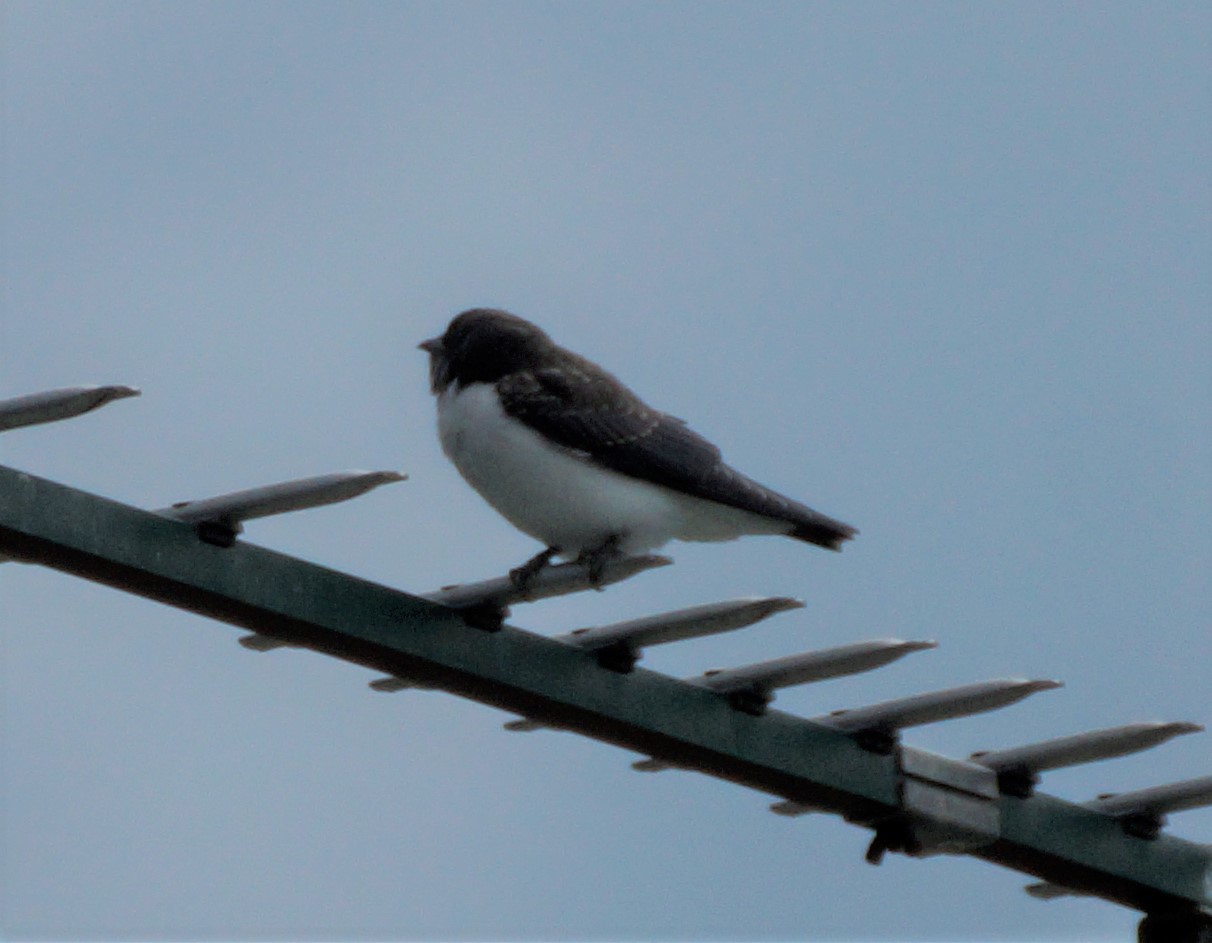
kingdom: Animalia
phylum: Chordata
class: Aves
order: Passeriformes
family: Artamidae
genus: Artamus
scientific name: Artamus leucoryn
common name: White-breasted woodswallow
